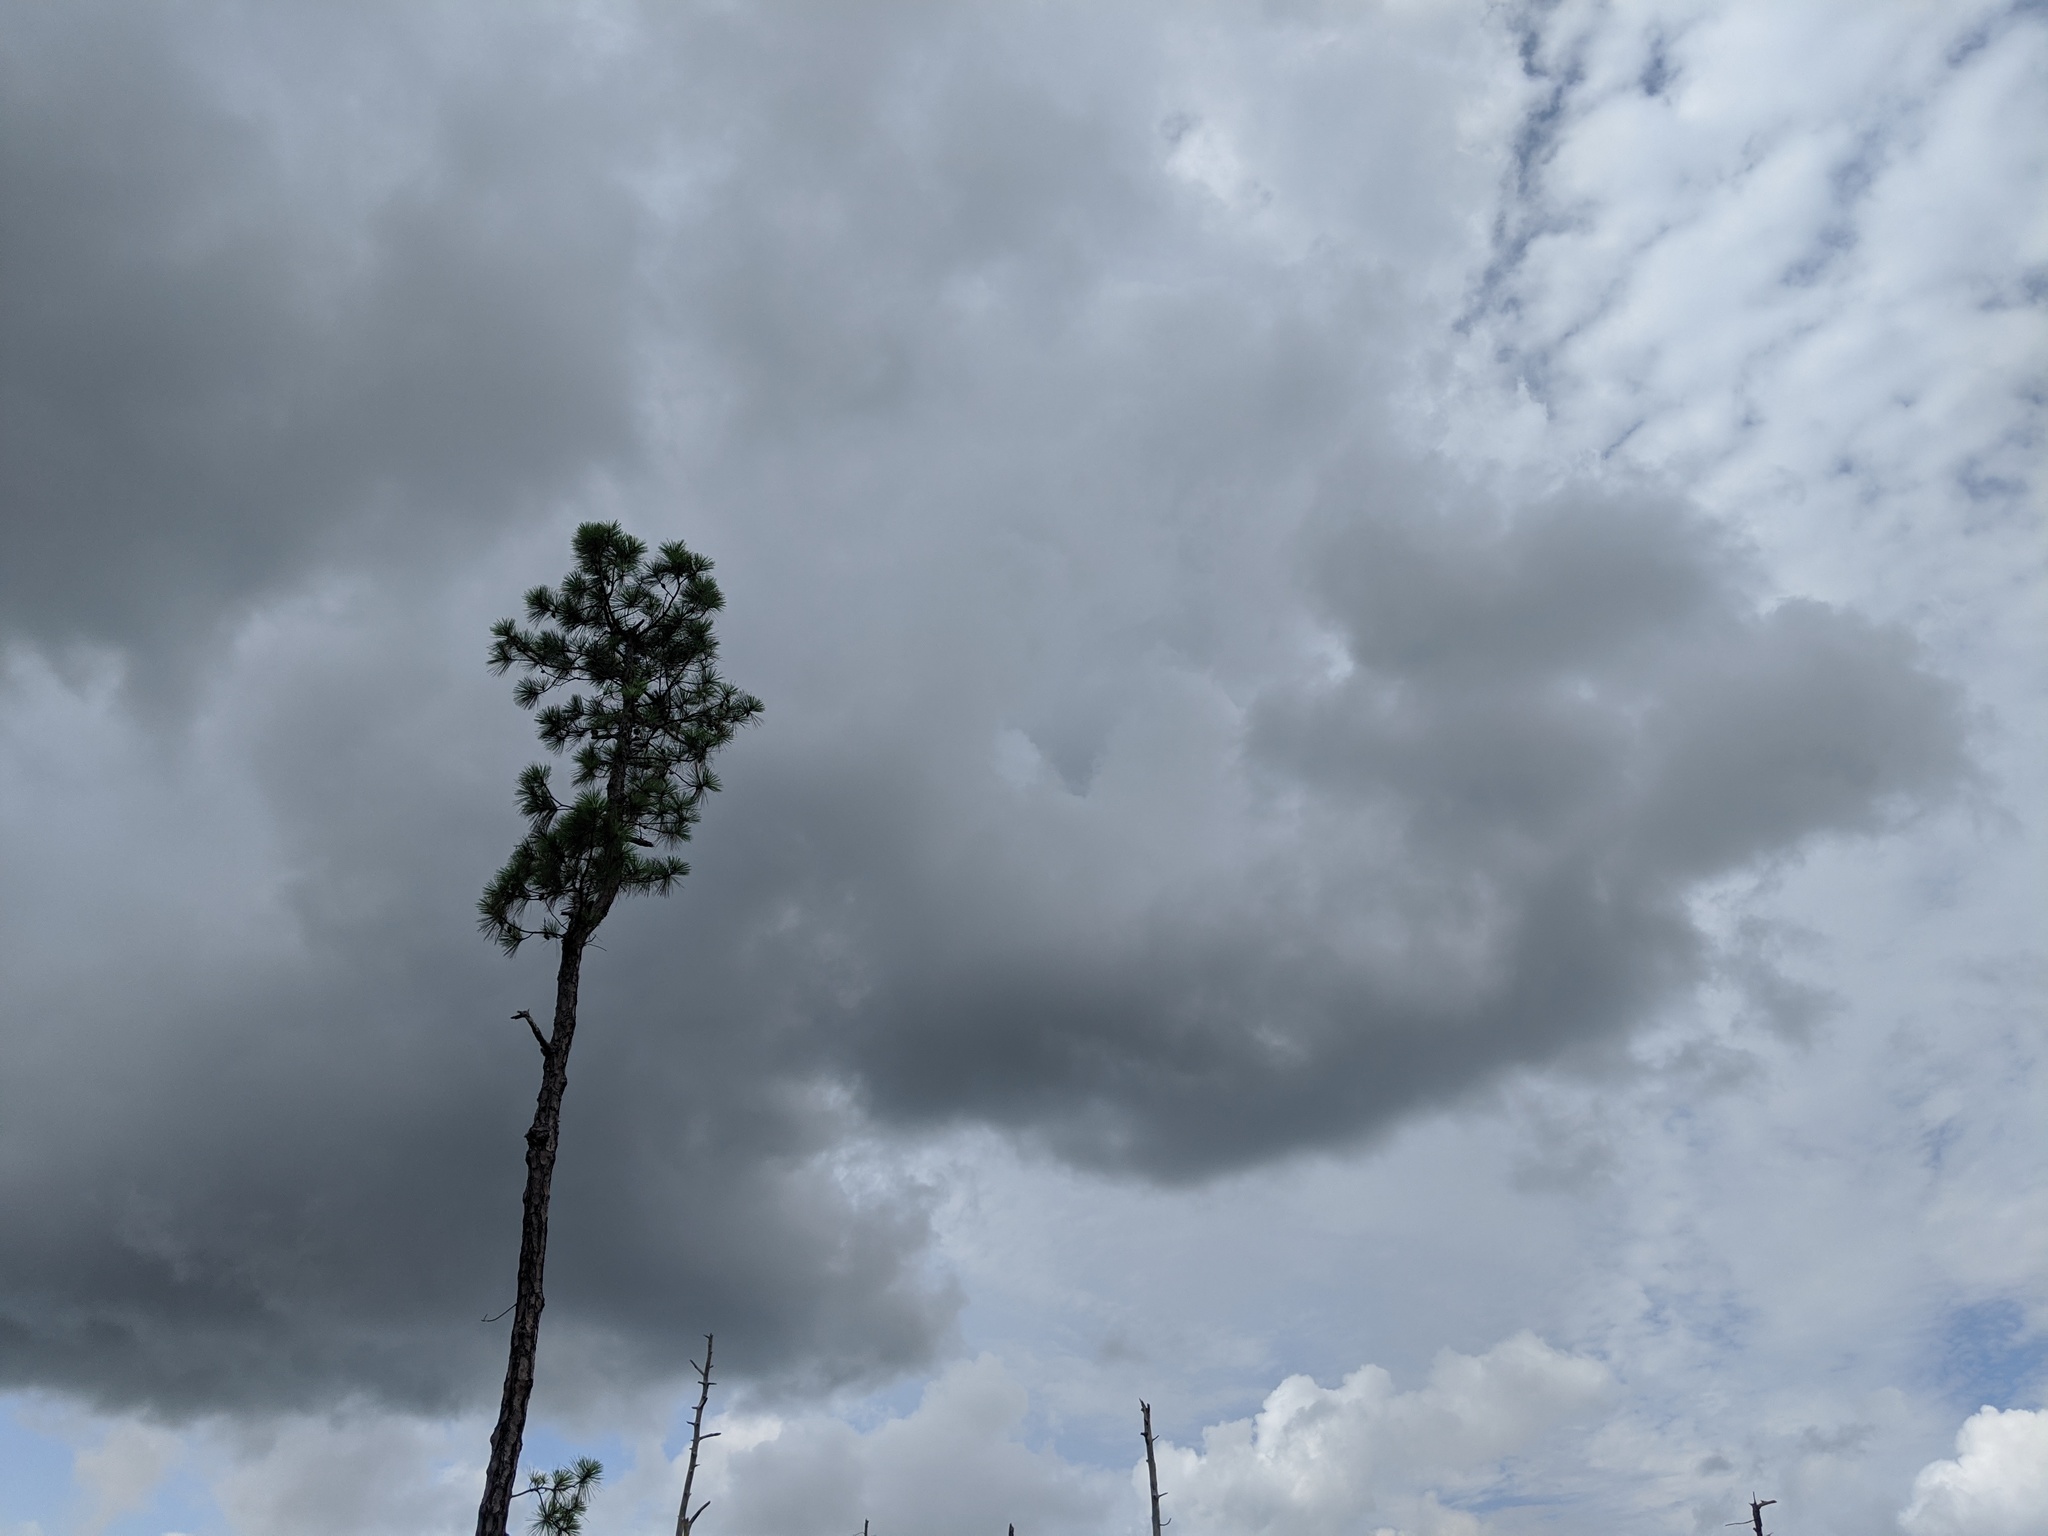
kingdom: Plantae
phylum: Tracheophyta
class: Pinopsida
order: Pinales
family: Pinaceae
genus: Pinus
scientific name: Pinus serotina
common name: Marsh pine
